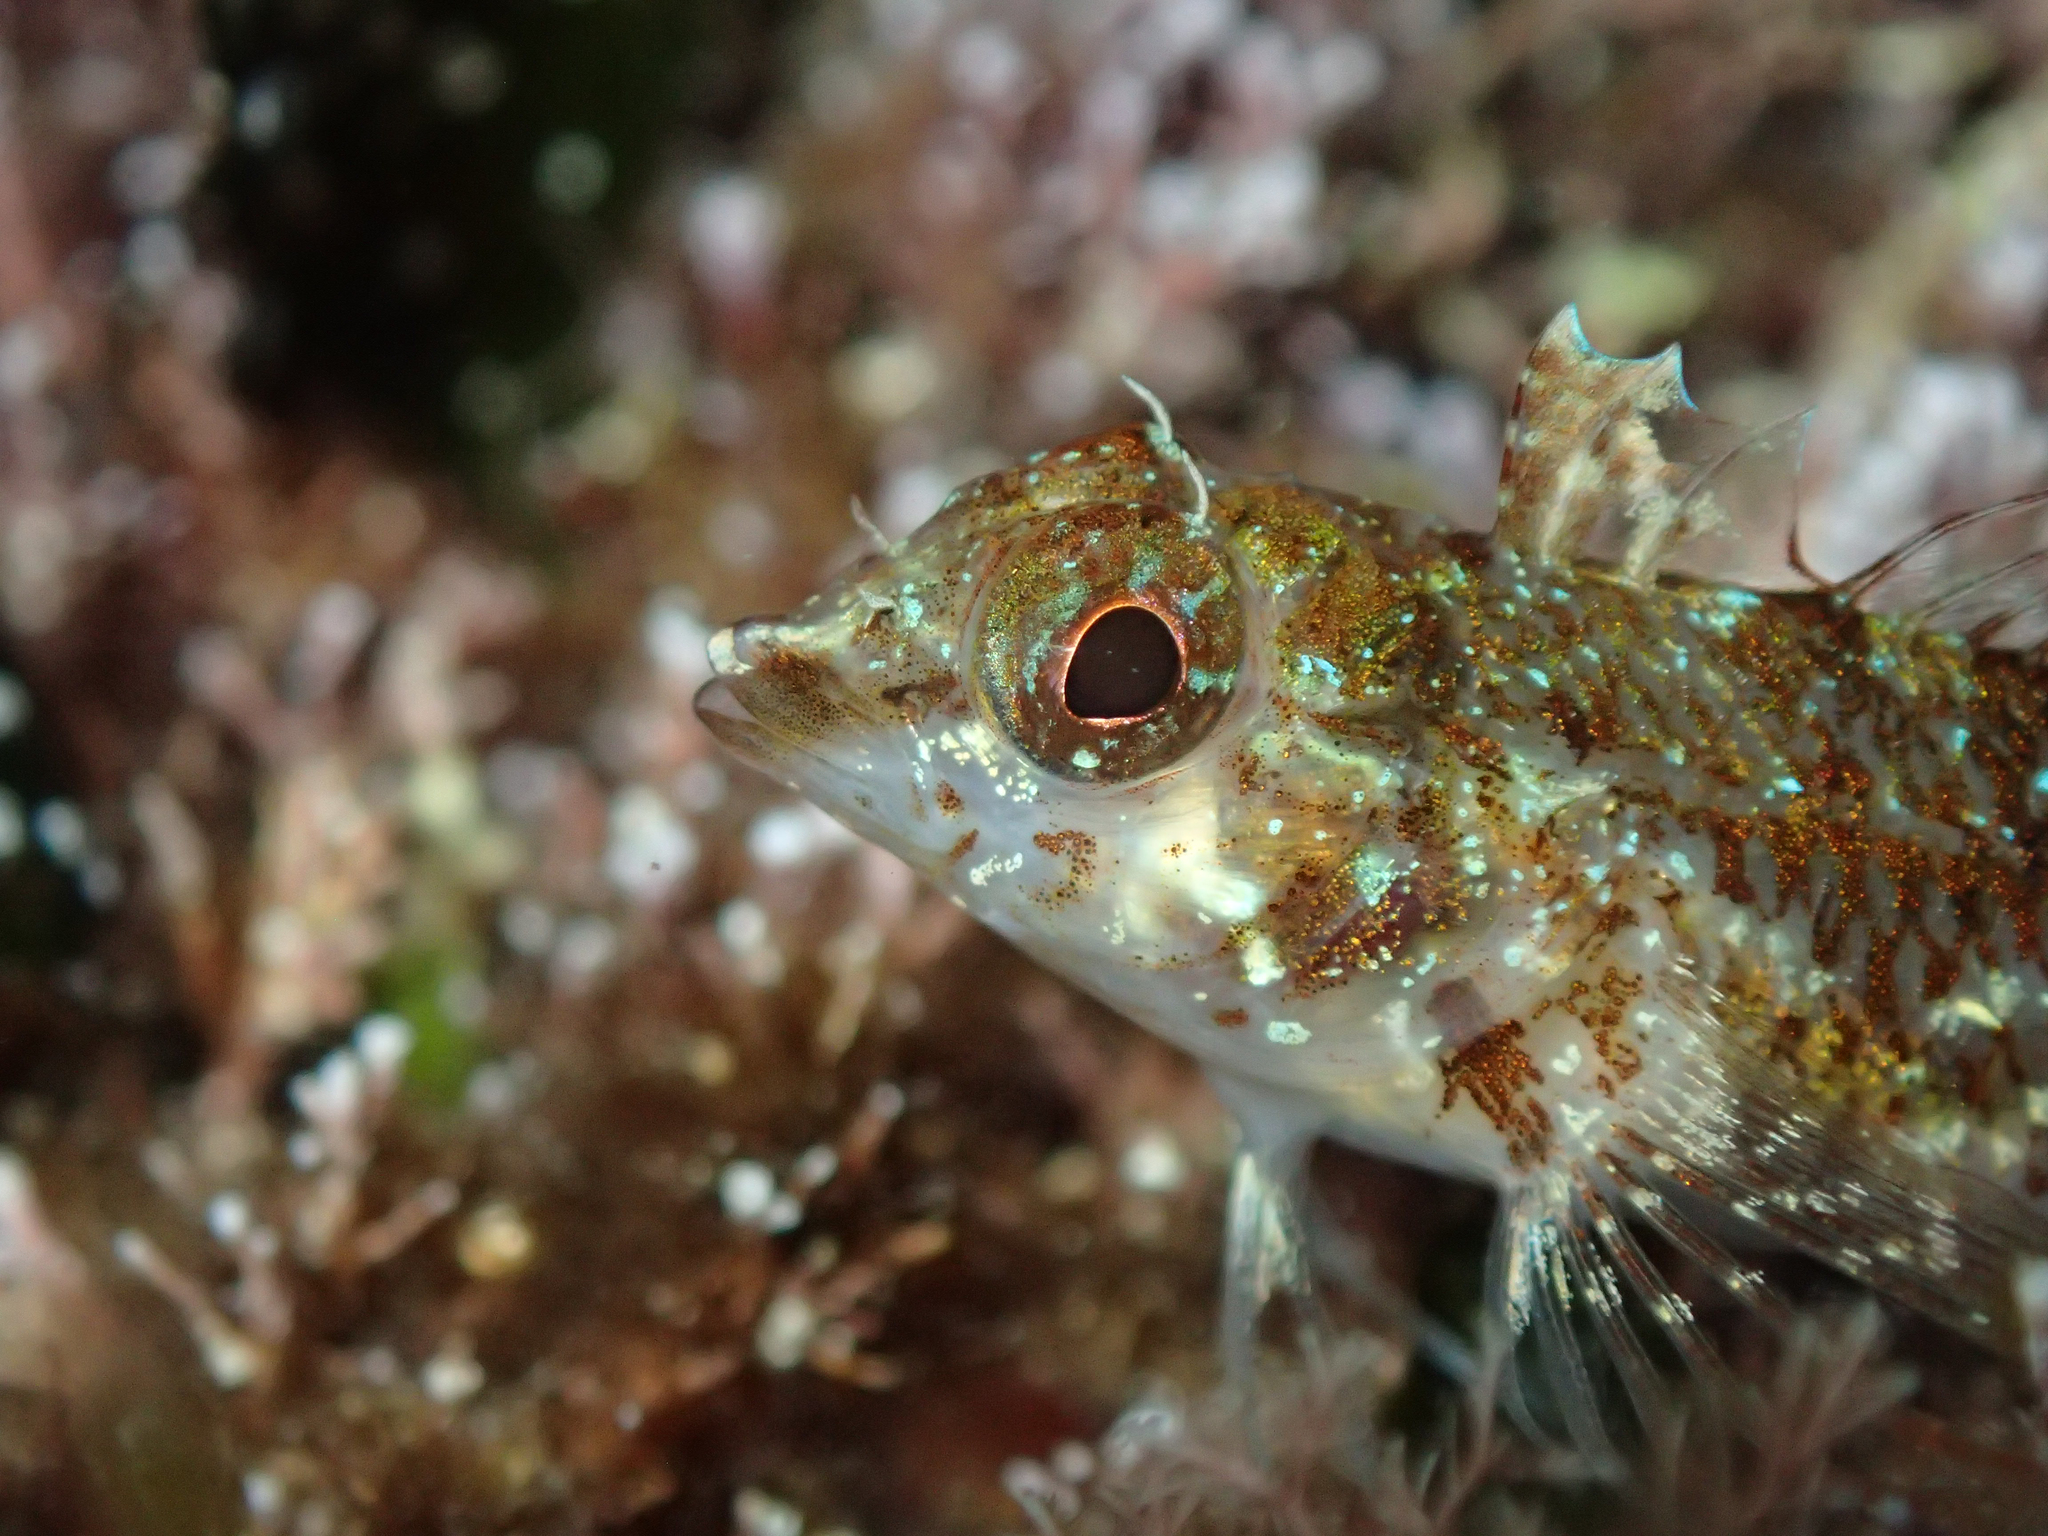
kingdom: Animalia
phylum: Chordata
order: Perciformes
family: Tripterygiidae
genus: Tripterygion
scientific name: Tripterygion tripteronotum
